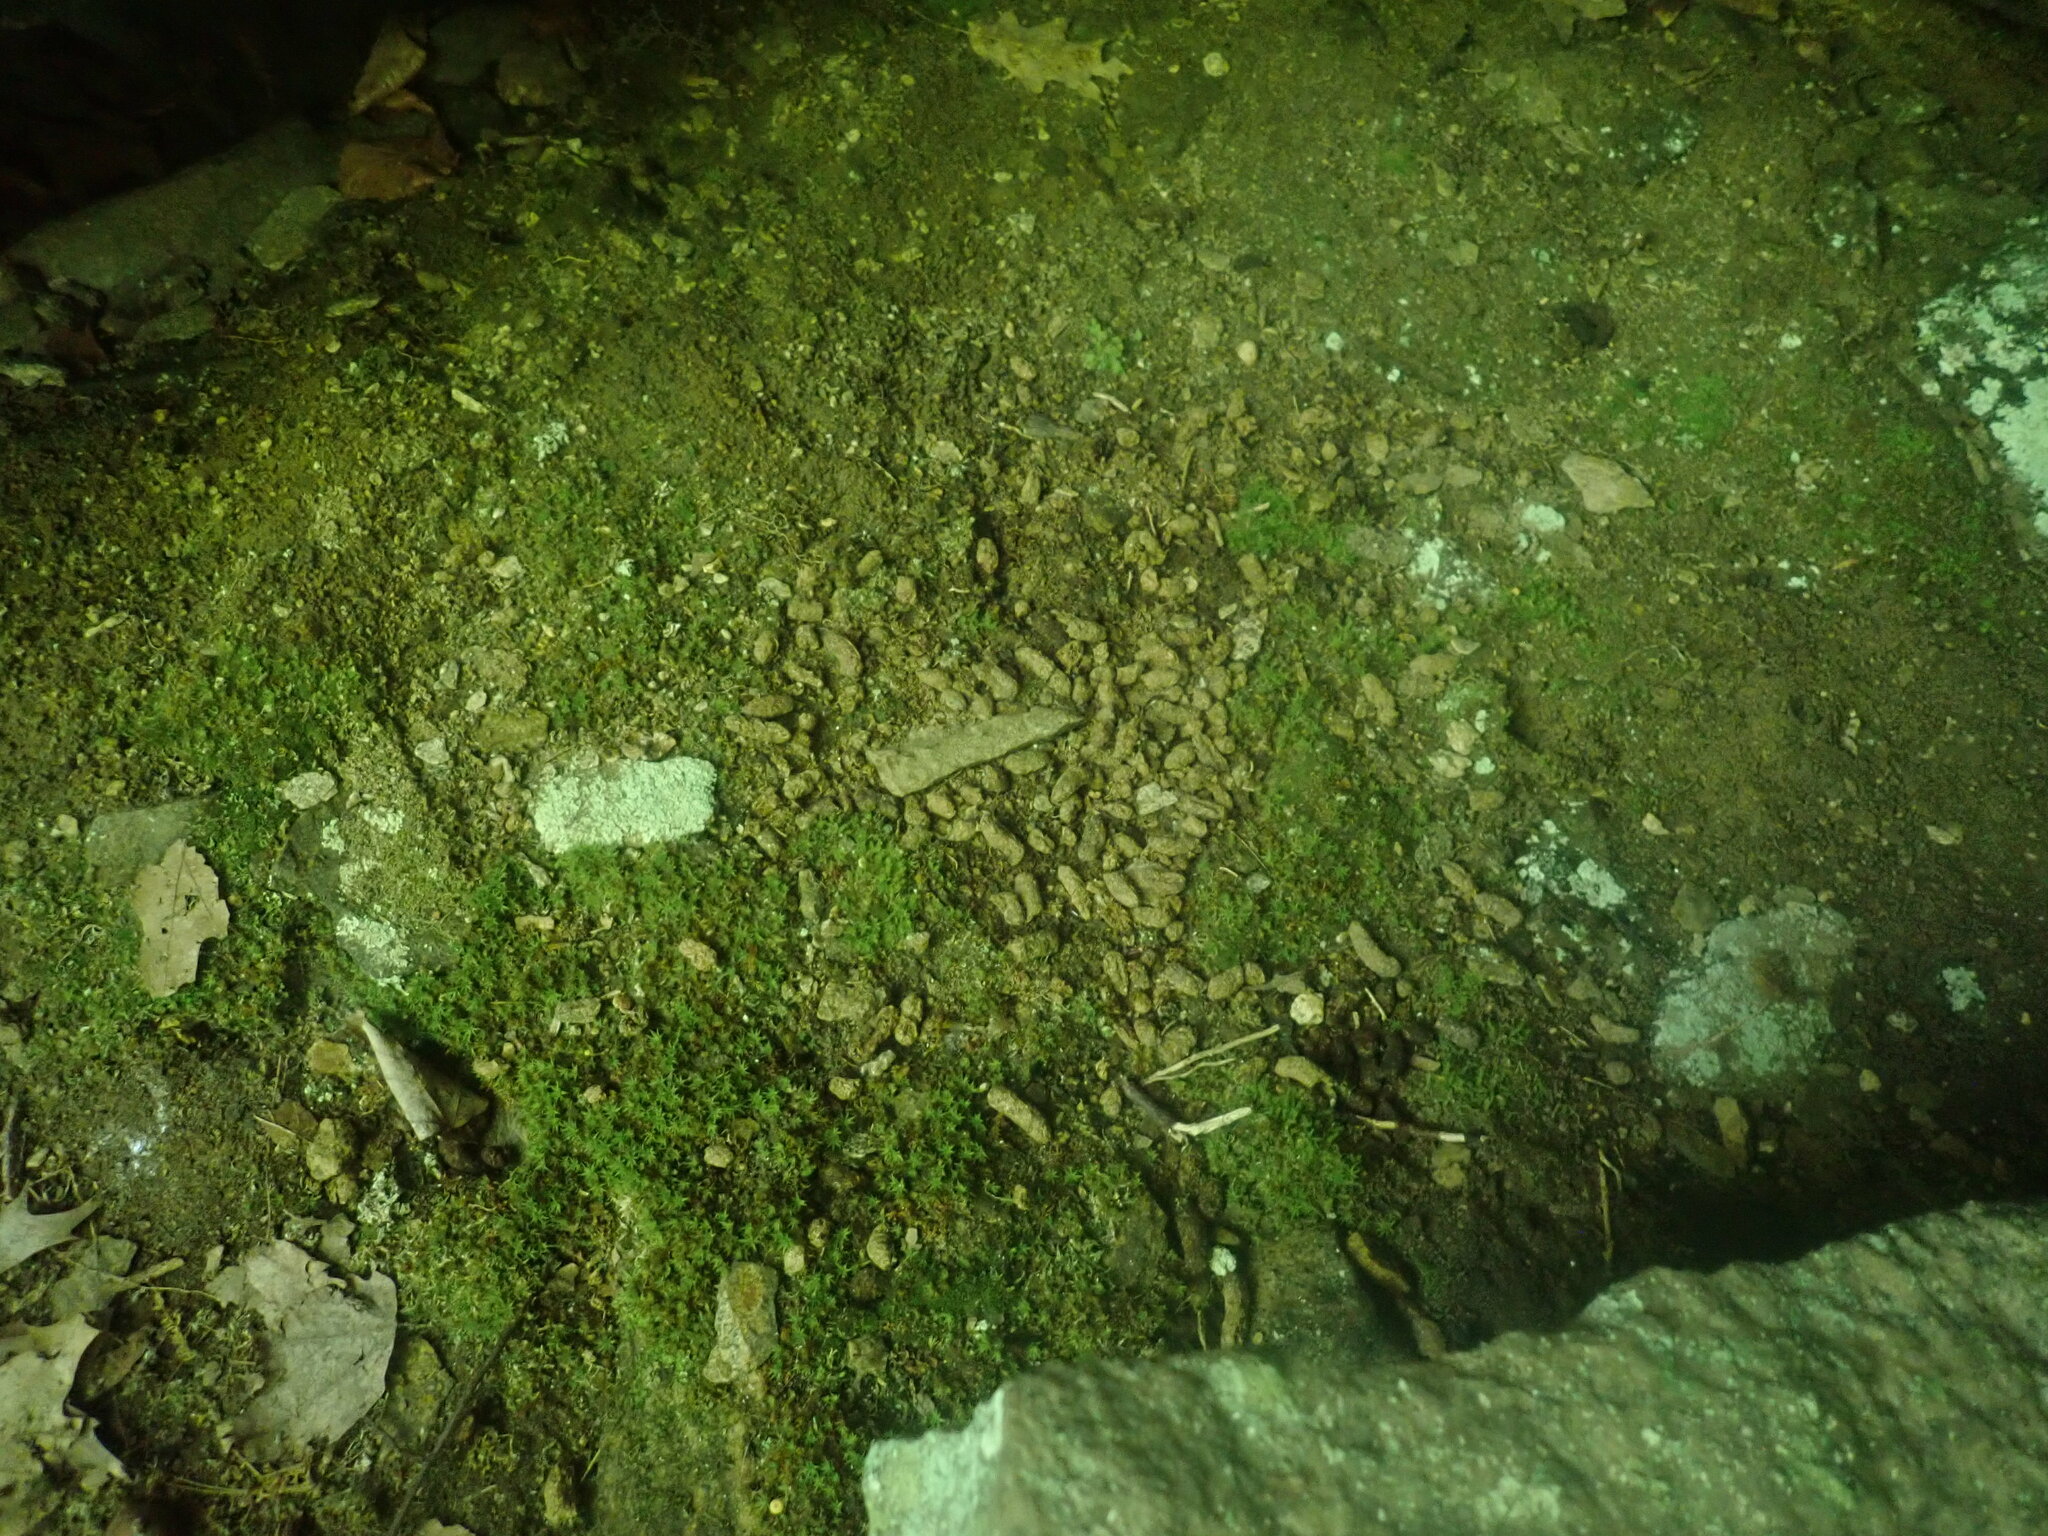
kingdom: Animalia
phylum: Chordata
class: Mammalia
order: Rodentia
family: Erethizontidae
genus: Erethizon
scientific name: Erethizon dorsatus
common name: North american porcupine
